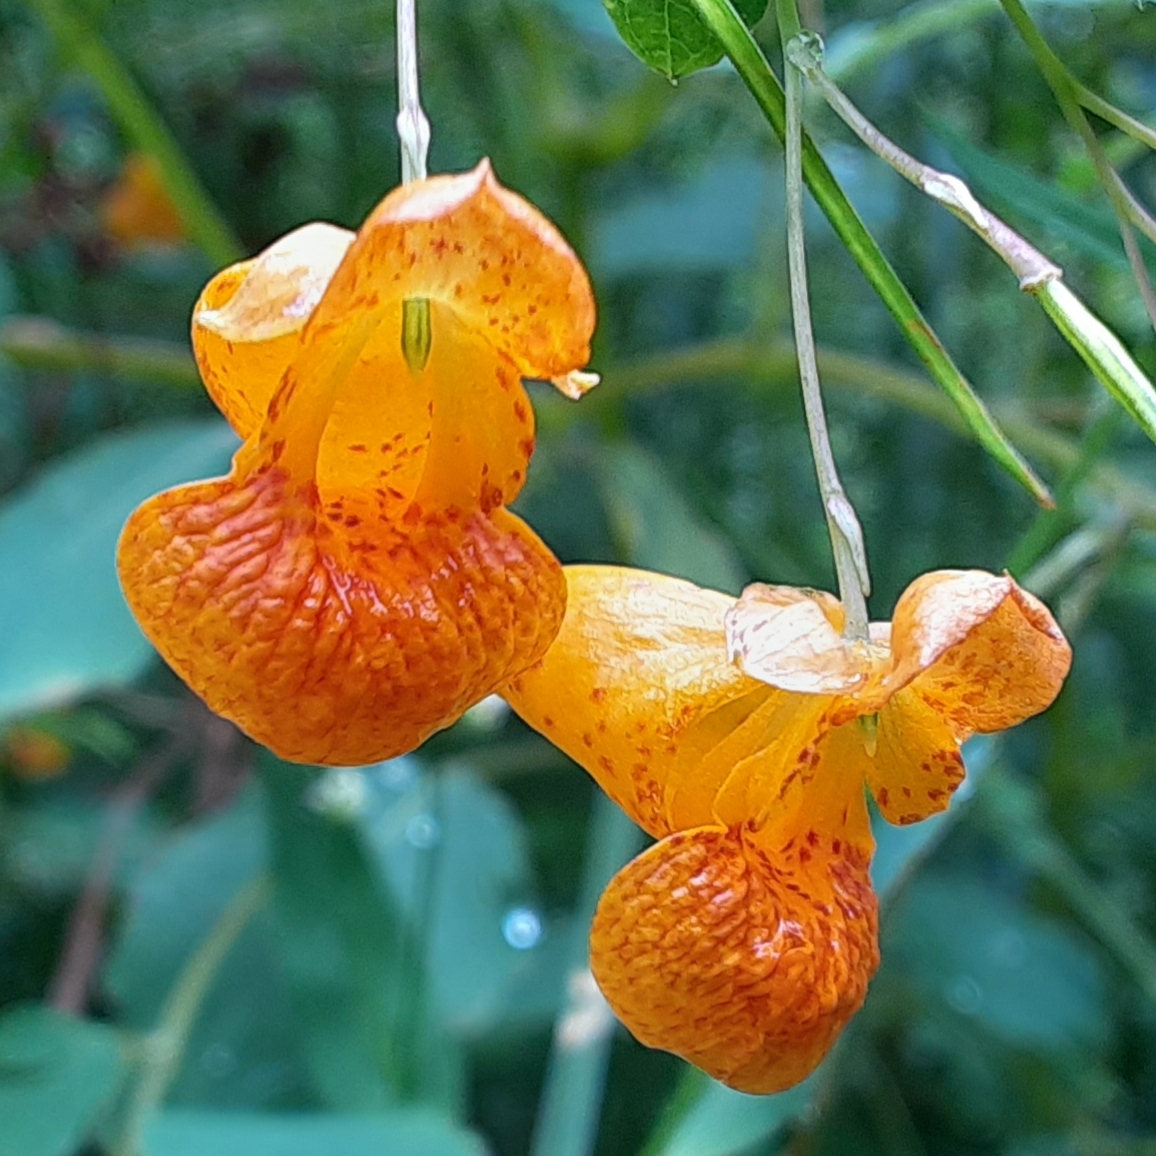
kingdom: Plantae
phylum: Tracheophyta
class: Magnoliopsida
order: Ericales
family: Balsaminaceae
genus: Impatiens
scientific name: Impatiens capensis
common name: Orange balsam
